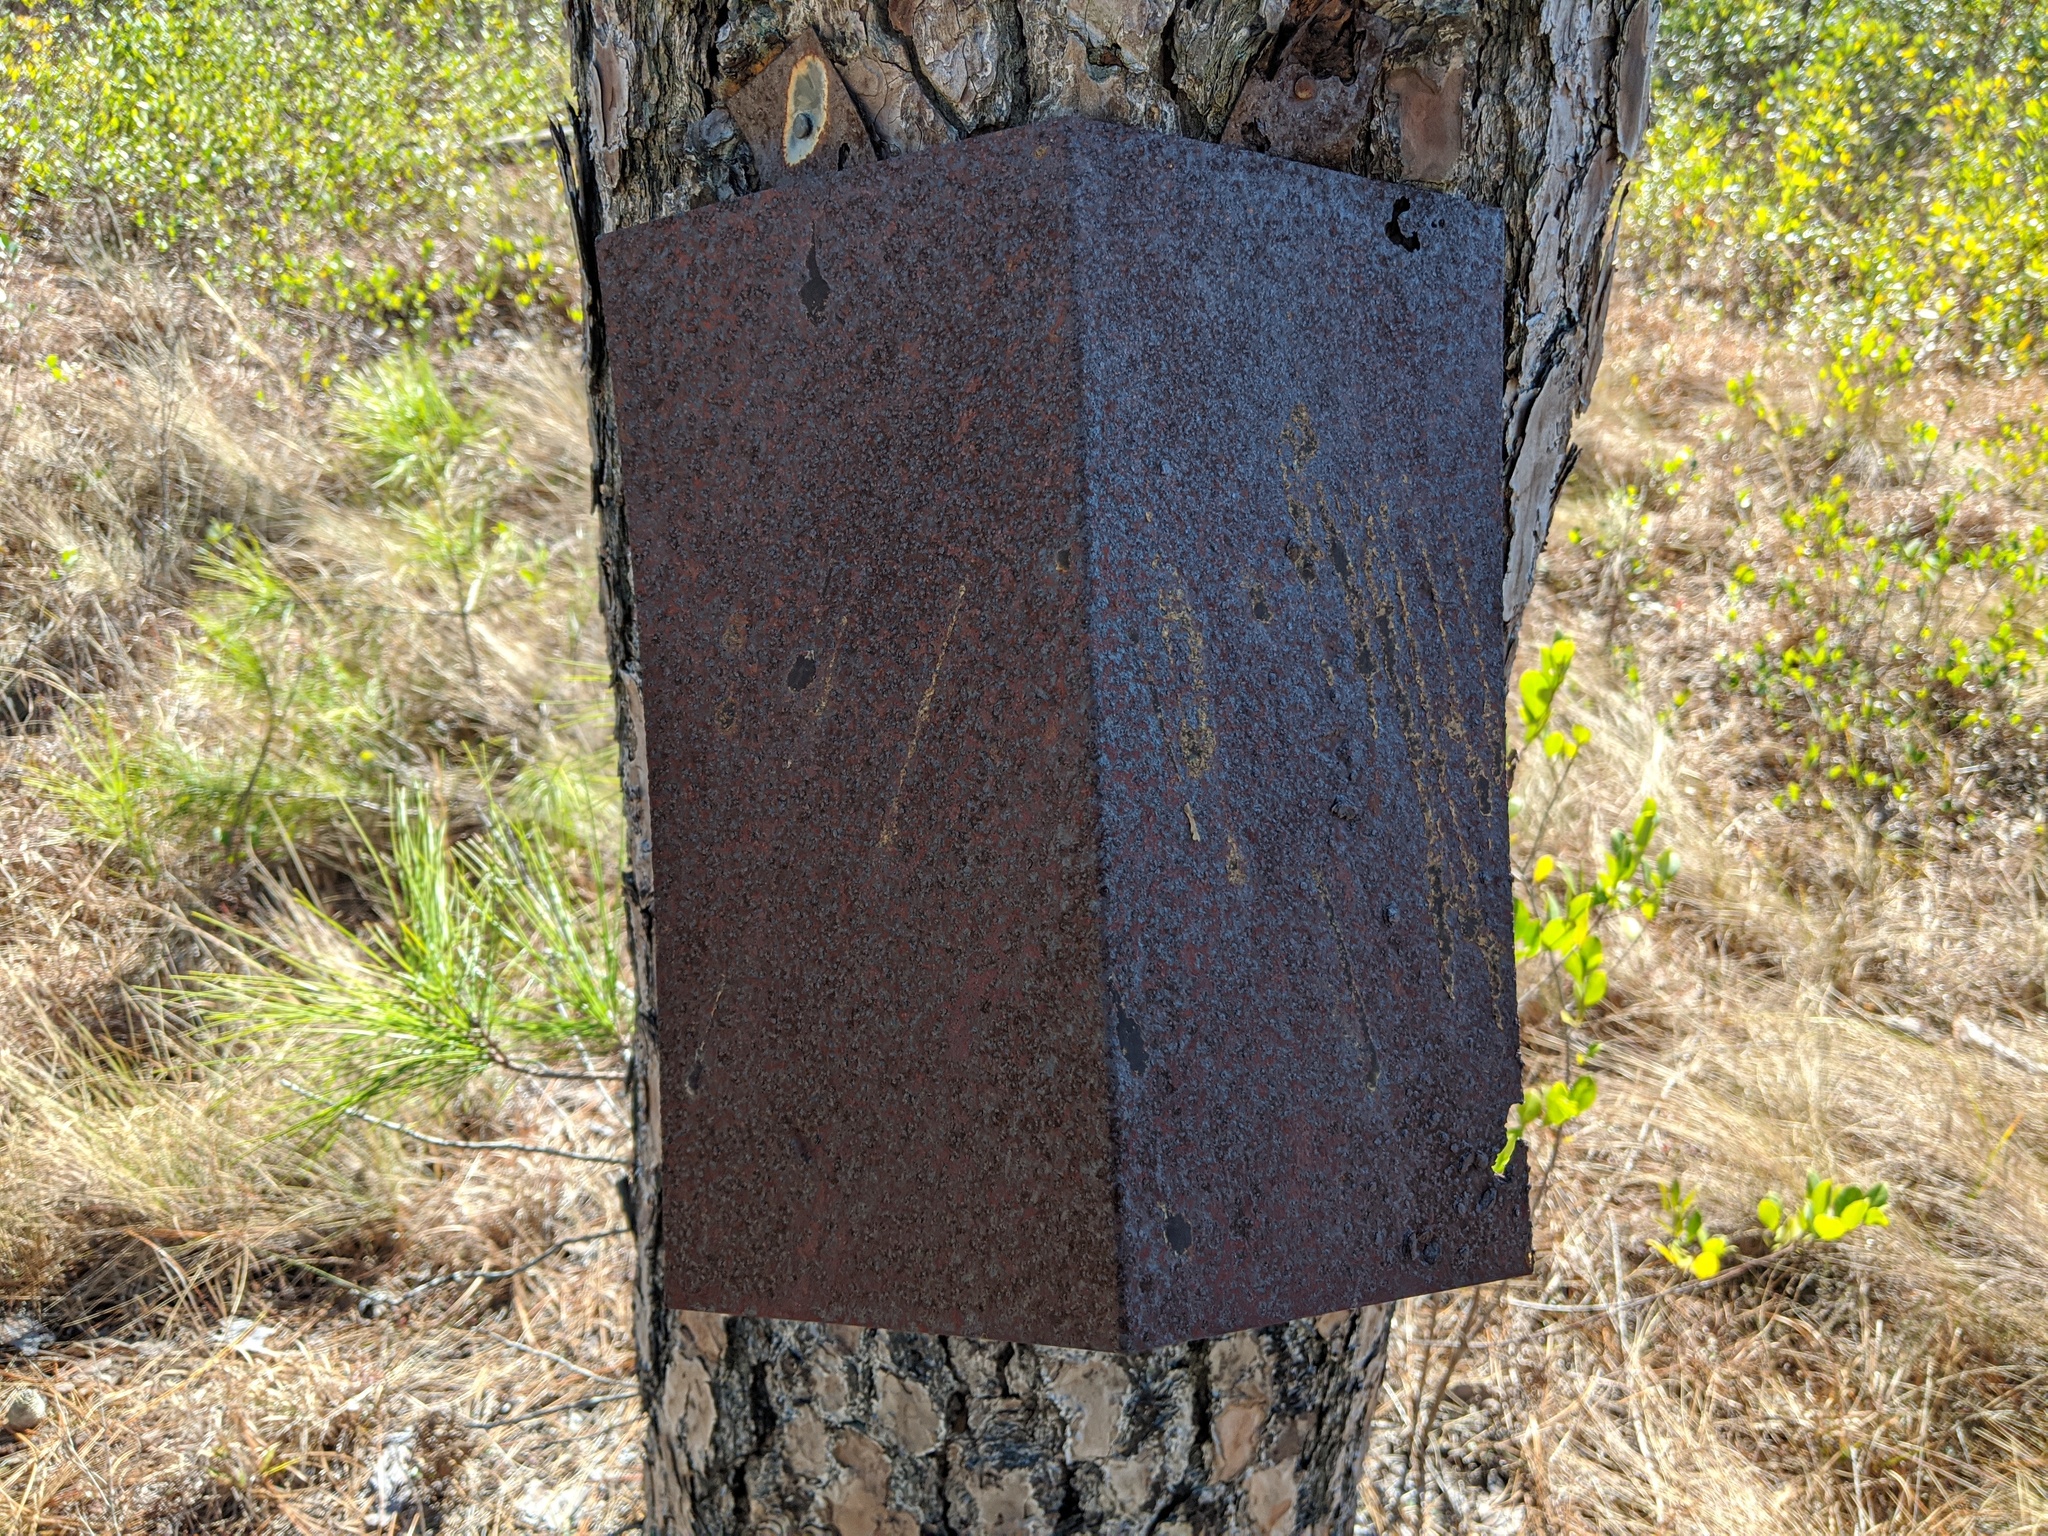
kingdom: Plantae
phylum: Tracheophyta
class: Pinopsida
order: Pinales
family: Pinaceae
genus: Pinus
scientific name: Pinus serotina
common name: Marsh pine
